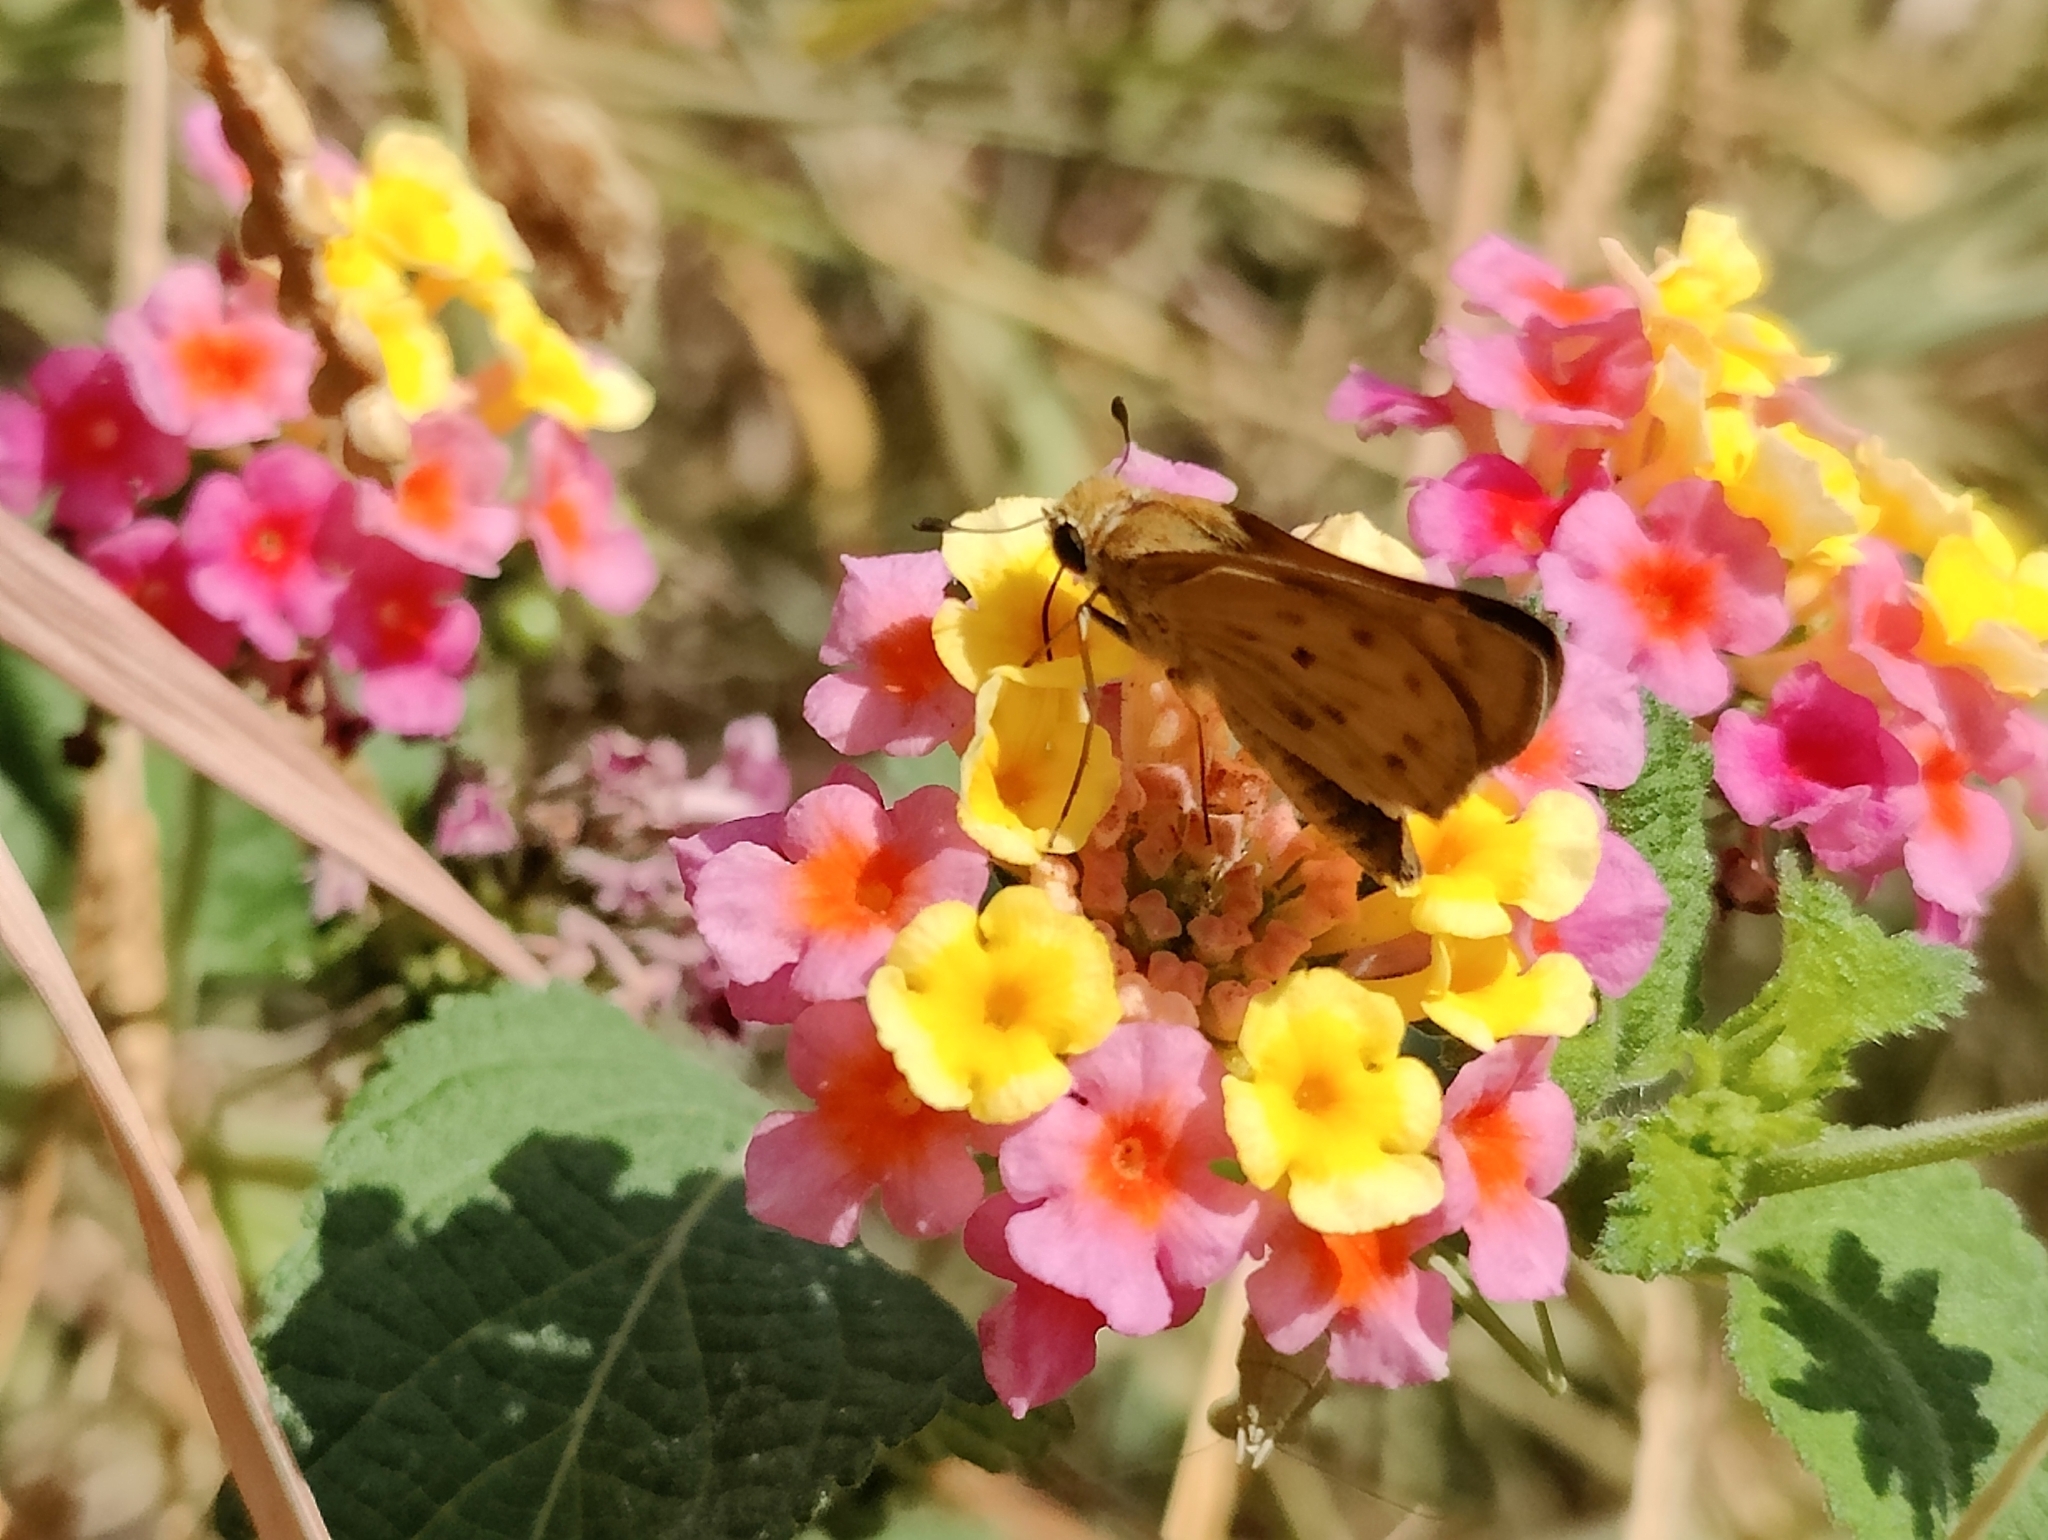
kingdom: Animalia
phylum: Arthropoda
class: Insecta
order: Lepidoptera
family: Hesperiidae
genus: Hylephila
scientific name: Hylephila phyleus
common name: Fiery skipper
